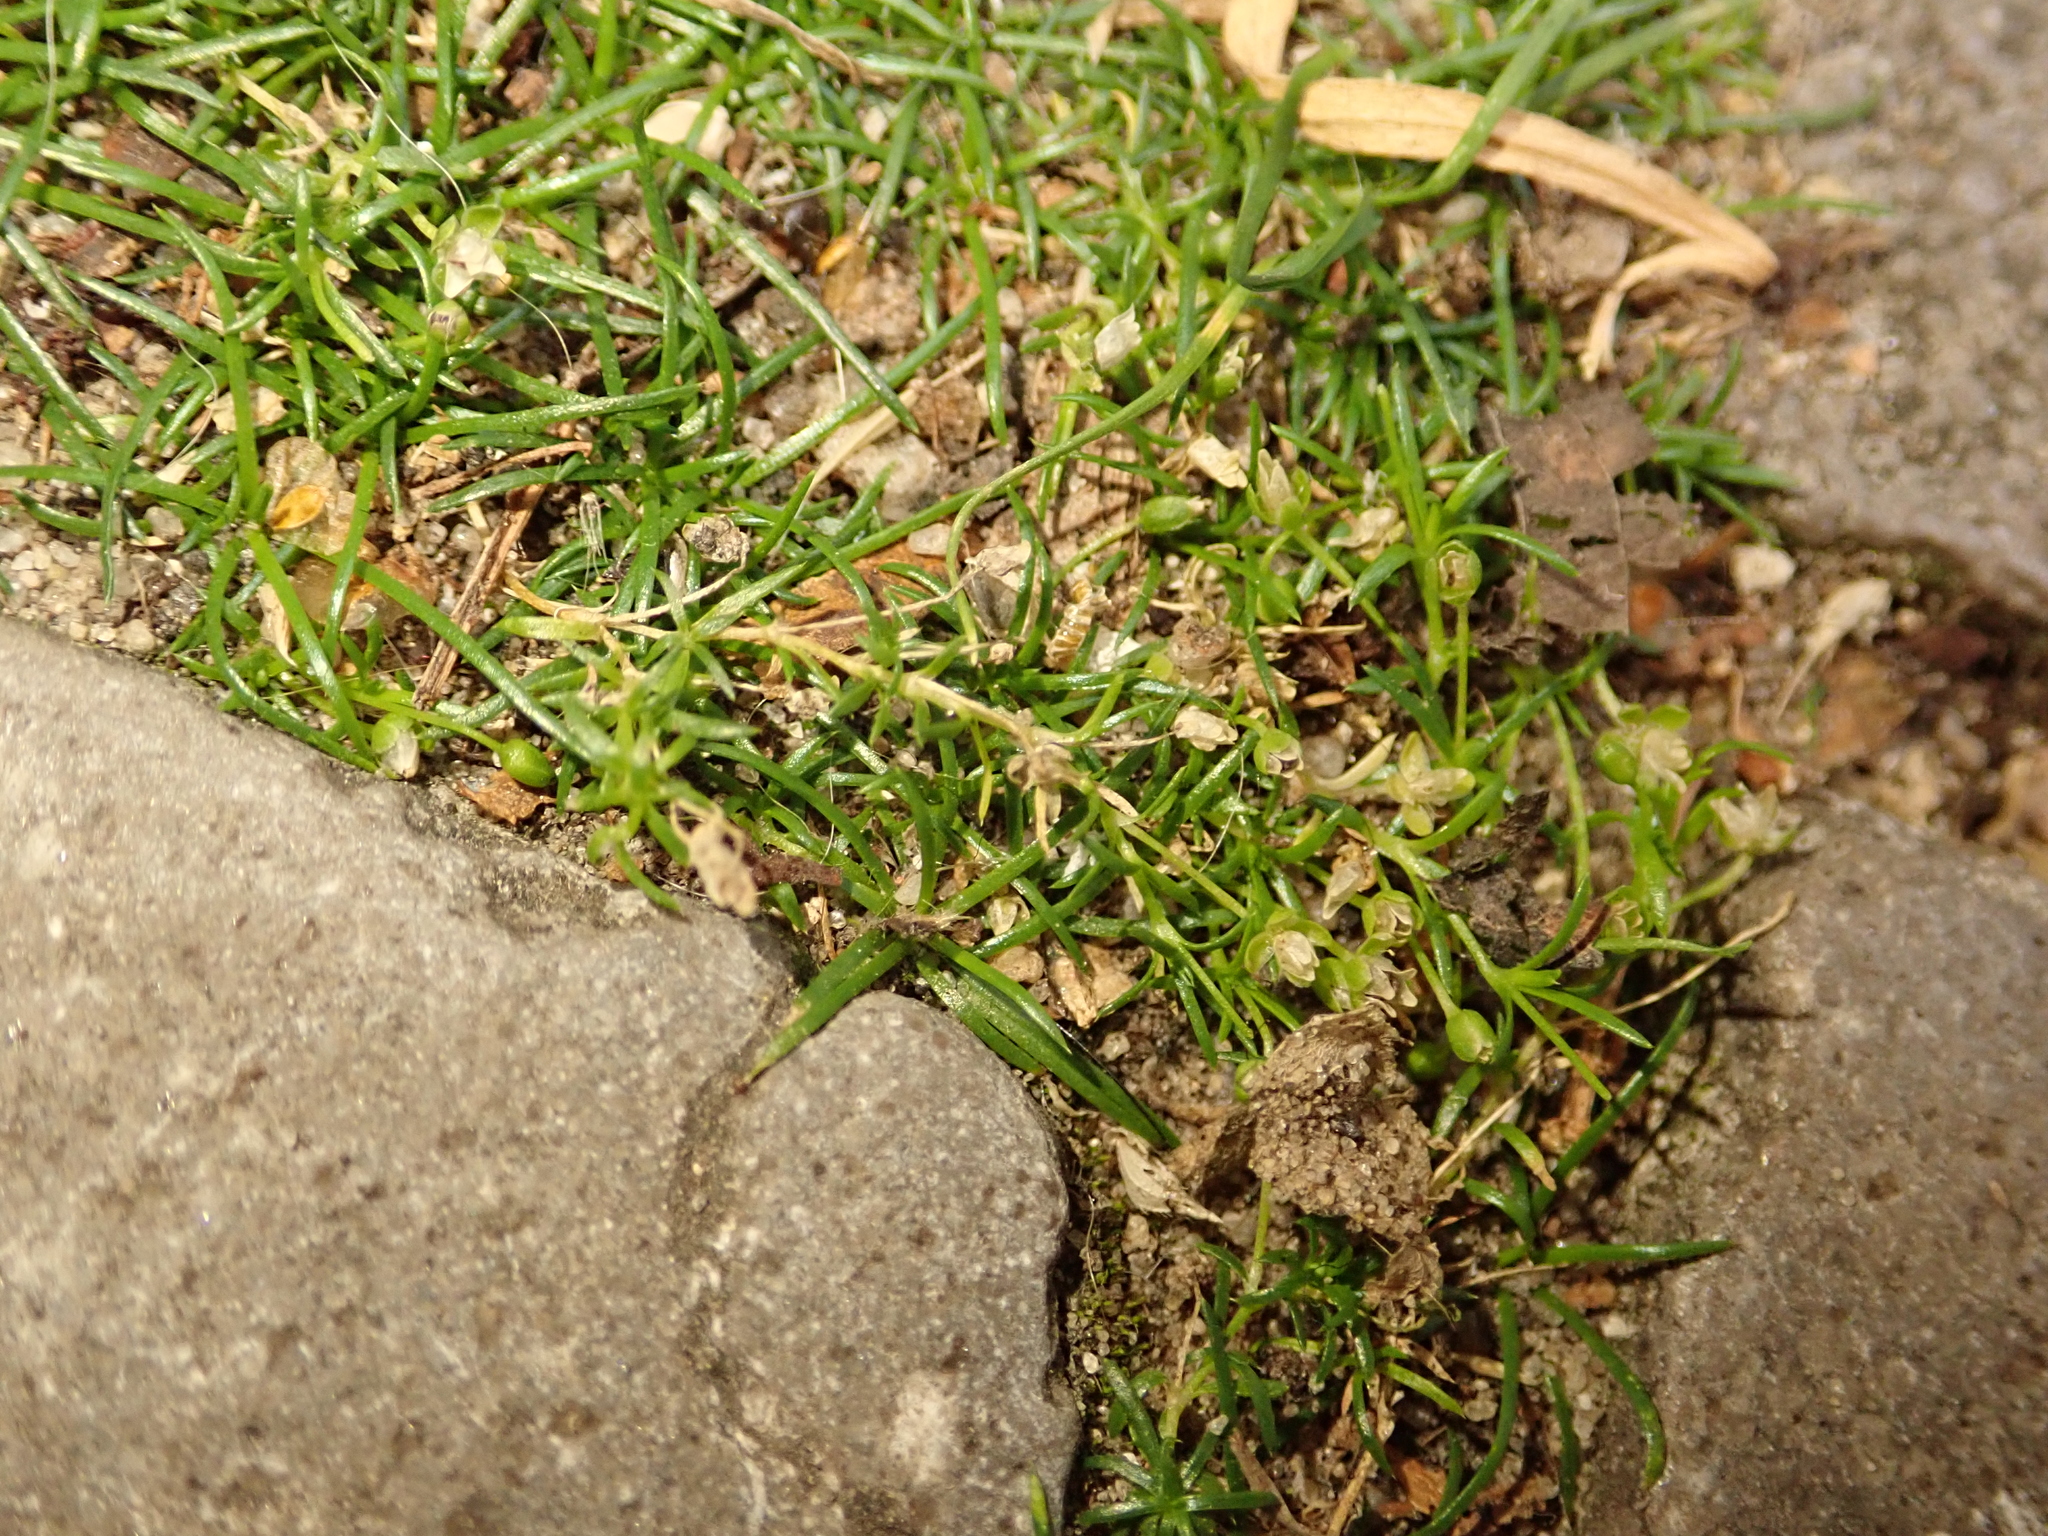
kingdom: Plantae
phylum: Tracheophyta
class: Magnoliopsida
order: Caryophyllales
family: Caryophyllaceae
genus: Sagina
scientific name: Sagina procumbens
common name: Procumbent pearlwort
